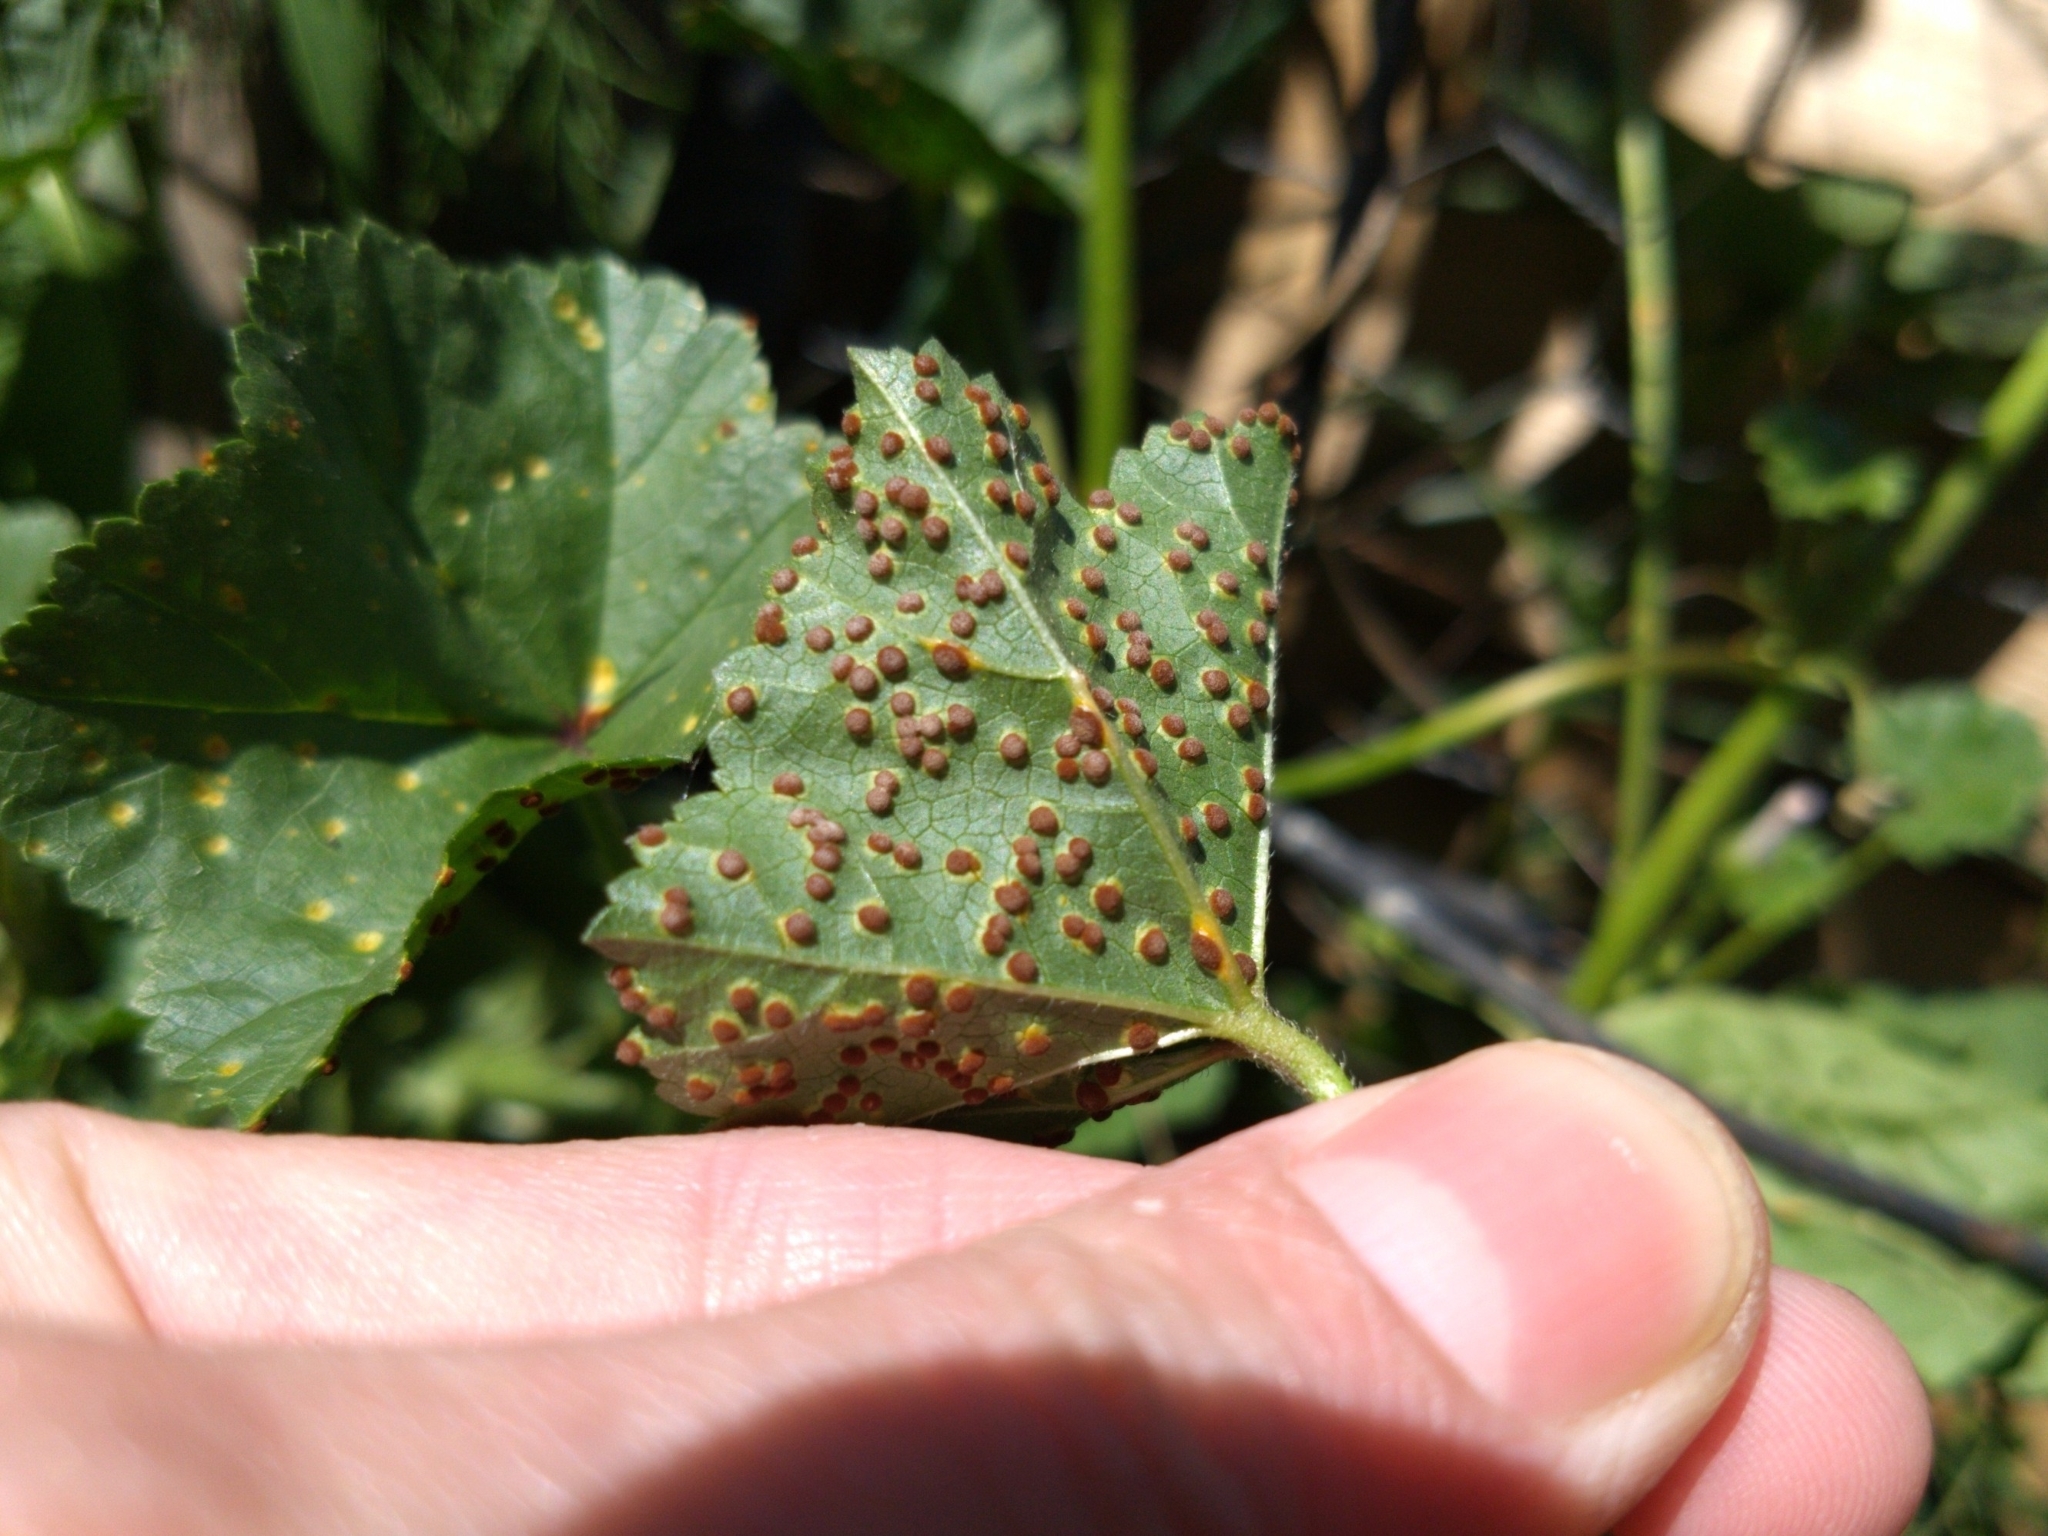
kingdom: Fungi
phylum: Basidiomycota
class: Pucciniomycetes
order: Pucciniales
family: Pucciniaceae
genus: Puccinia
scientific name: Puccinia malvacearum
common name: Hollyhock rust
